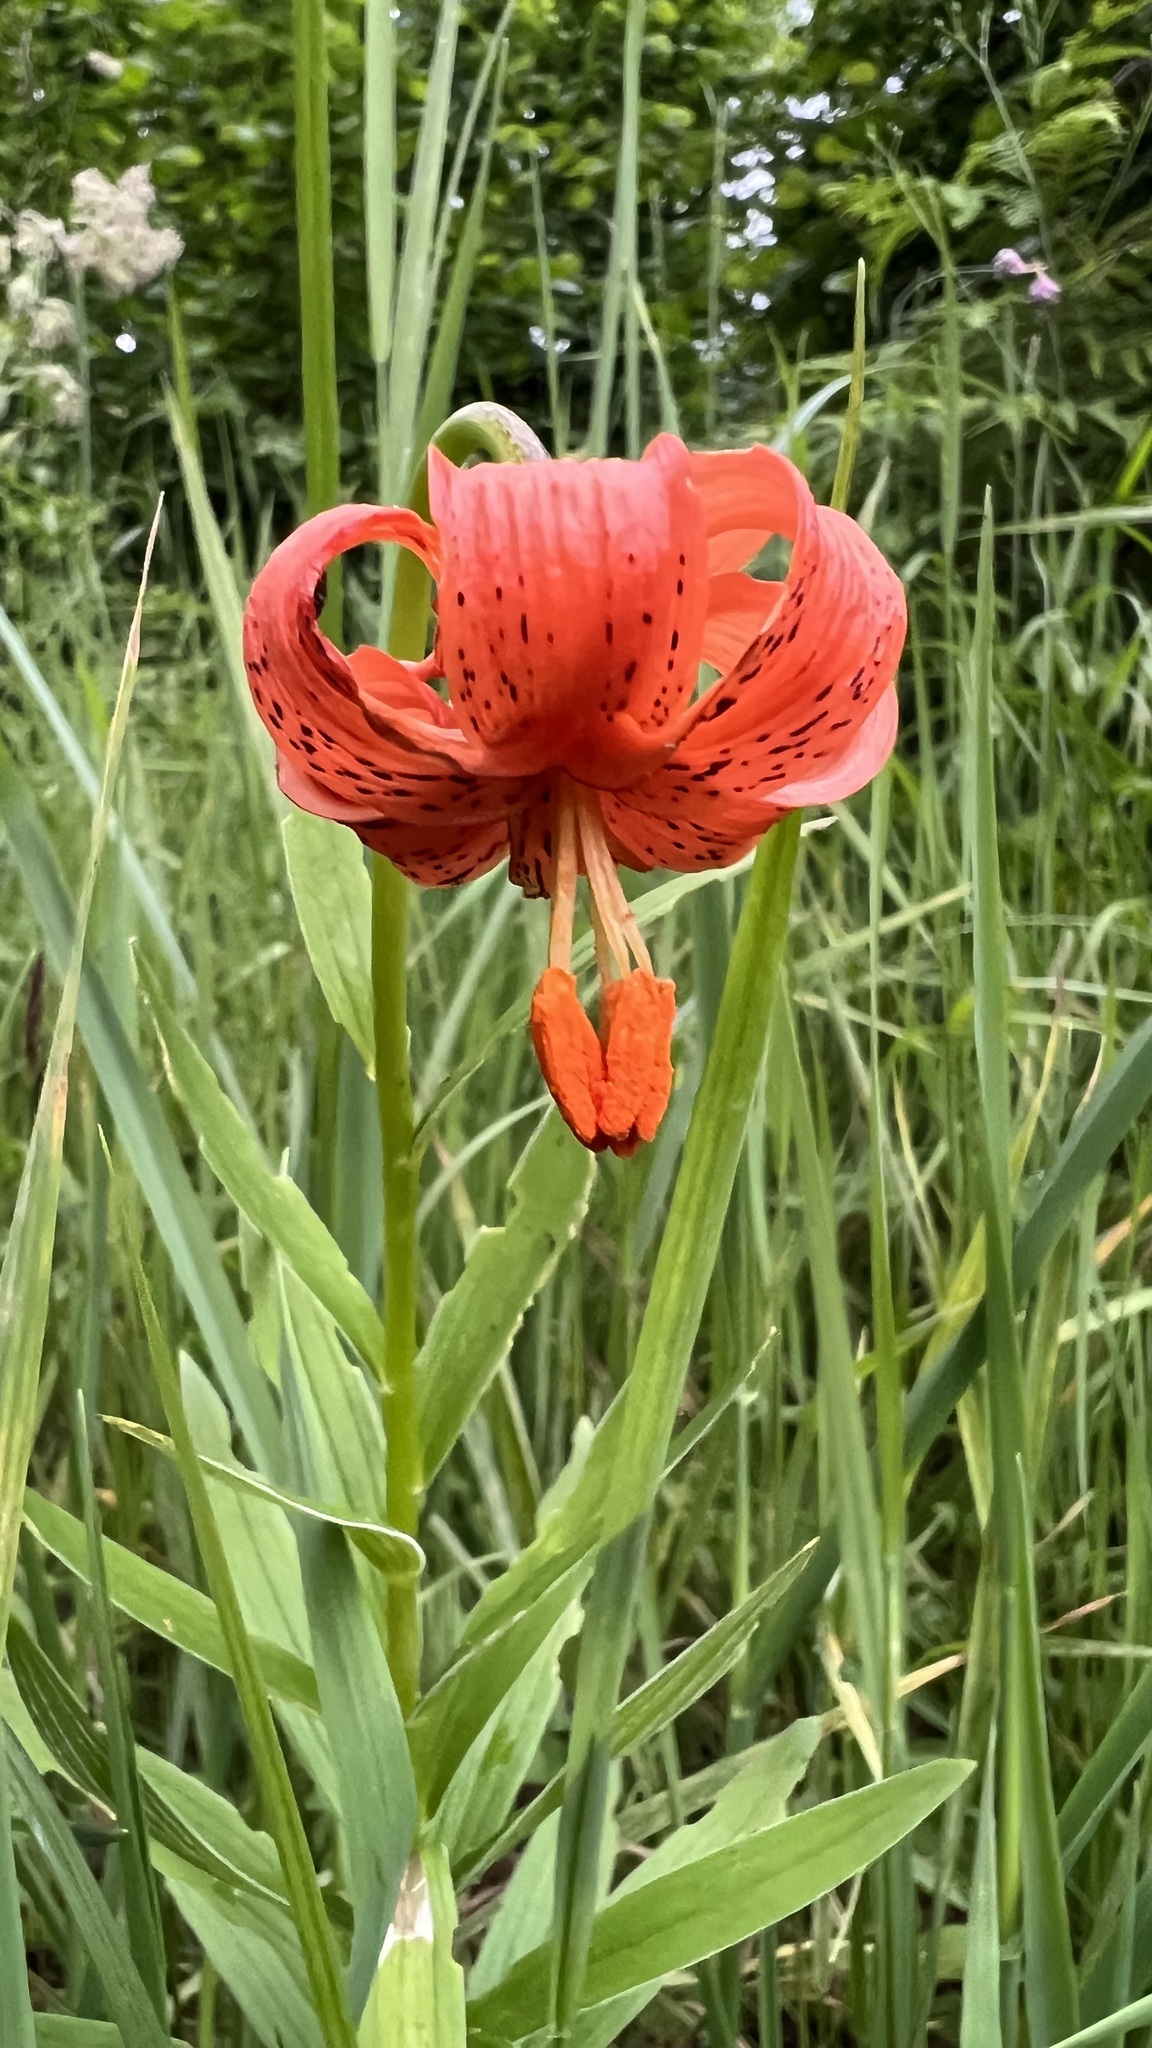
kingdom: Plantae
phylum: Tracheophyta
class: Liliopsida
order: Liliales
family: Liliaceae
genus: Lilium
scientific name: Lilium carniolicum
